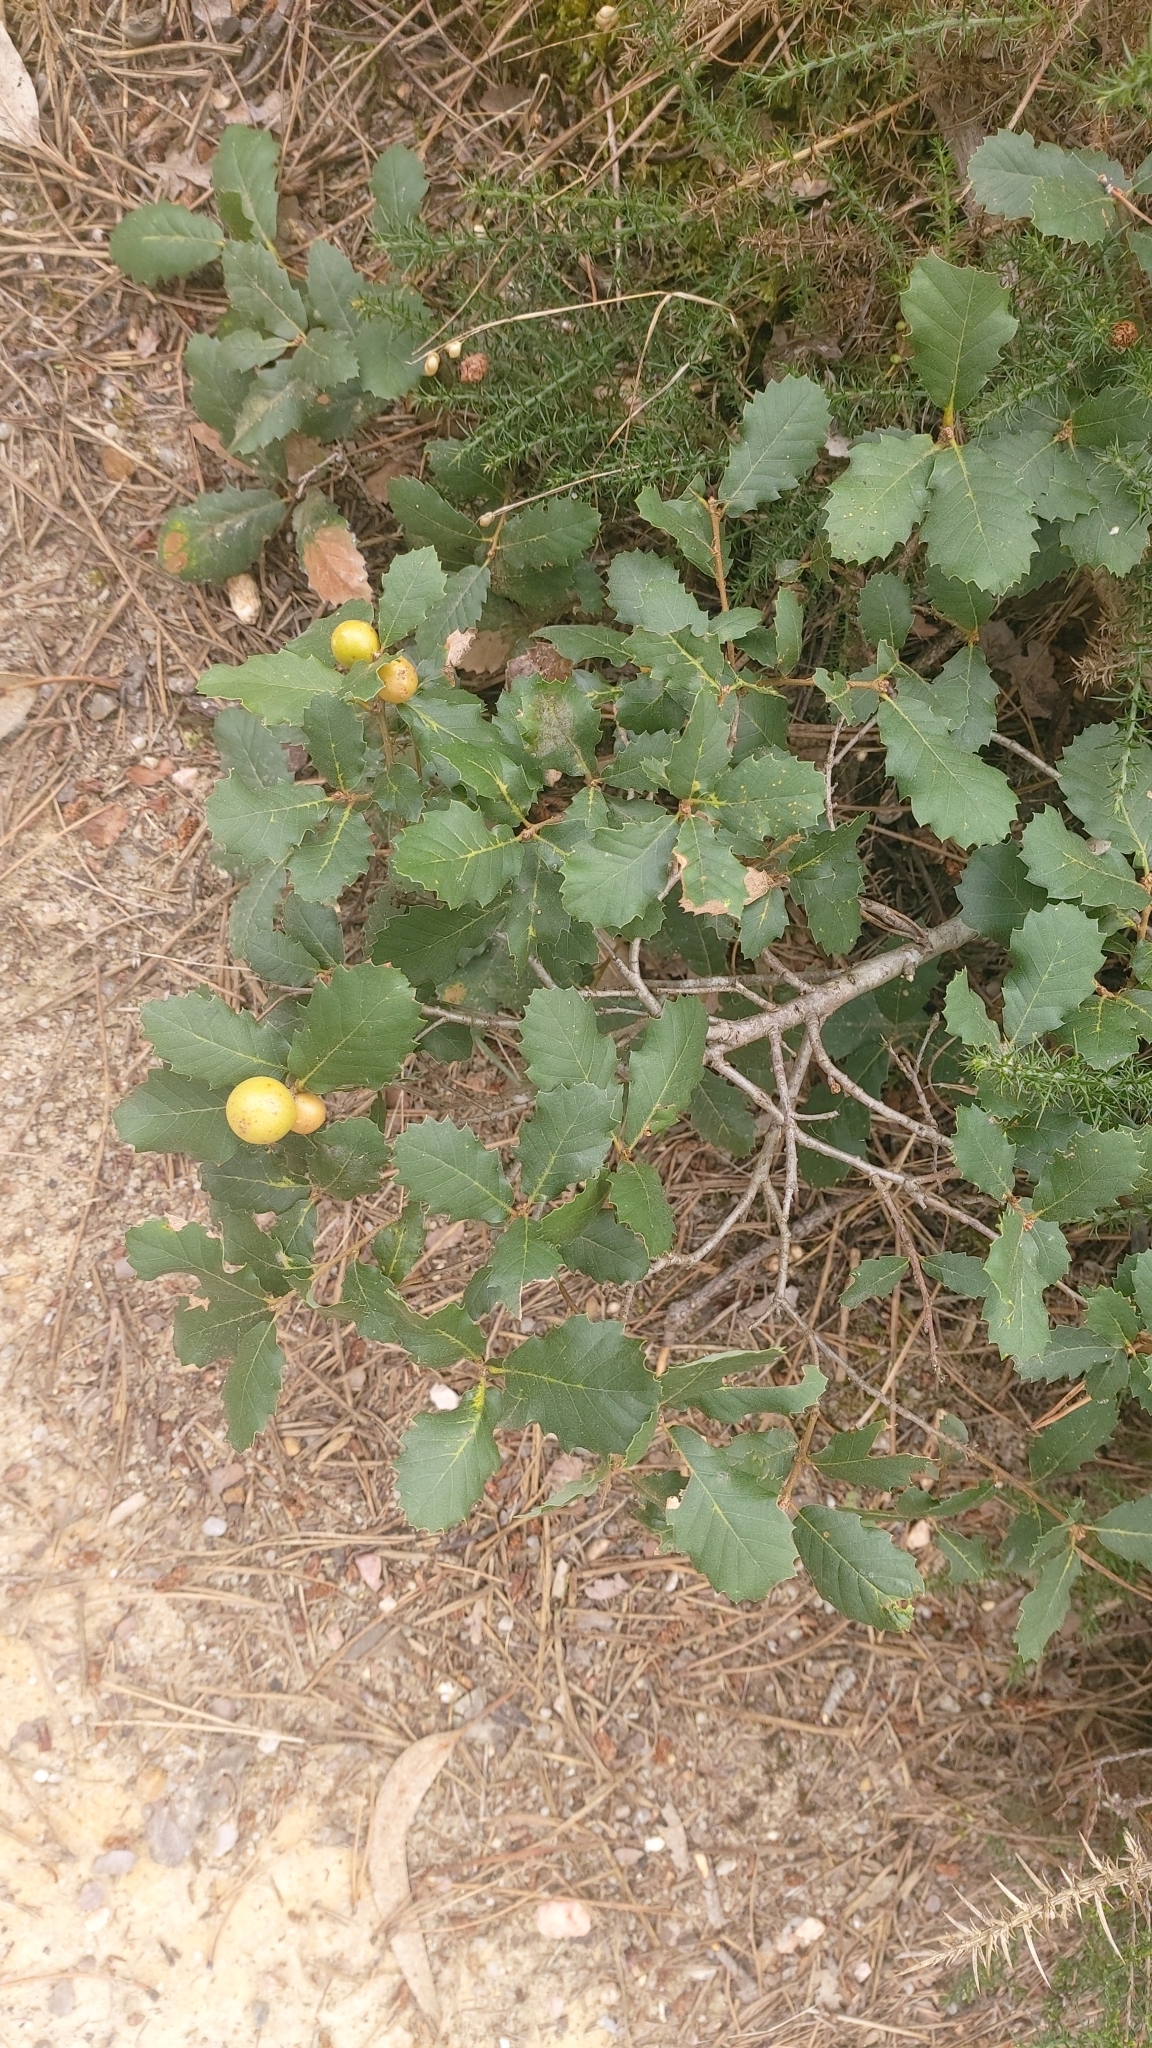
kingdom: Animalia
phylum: Arthropoda
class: Insecta
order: Hymenoptera
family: Cynipidae
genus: Andricus
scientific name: Andricus kollari
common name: Marble gall
